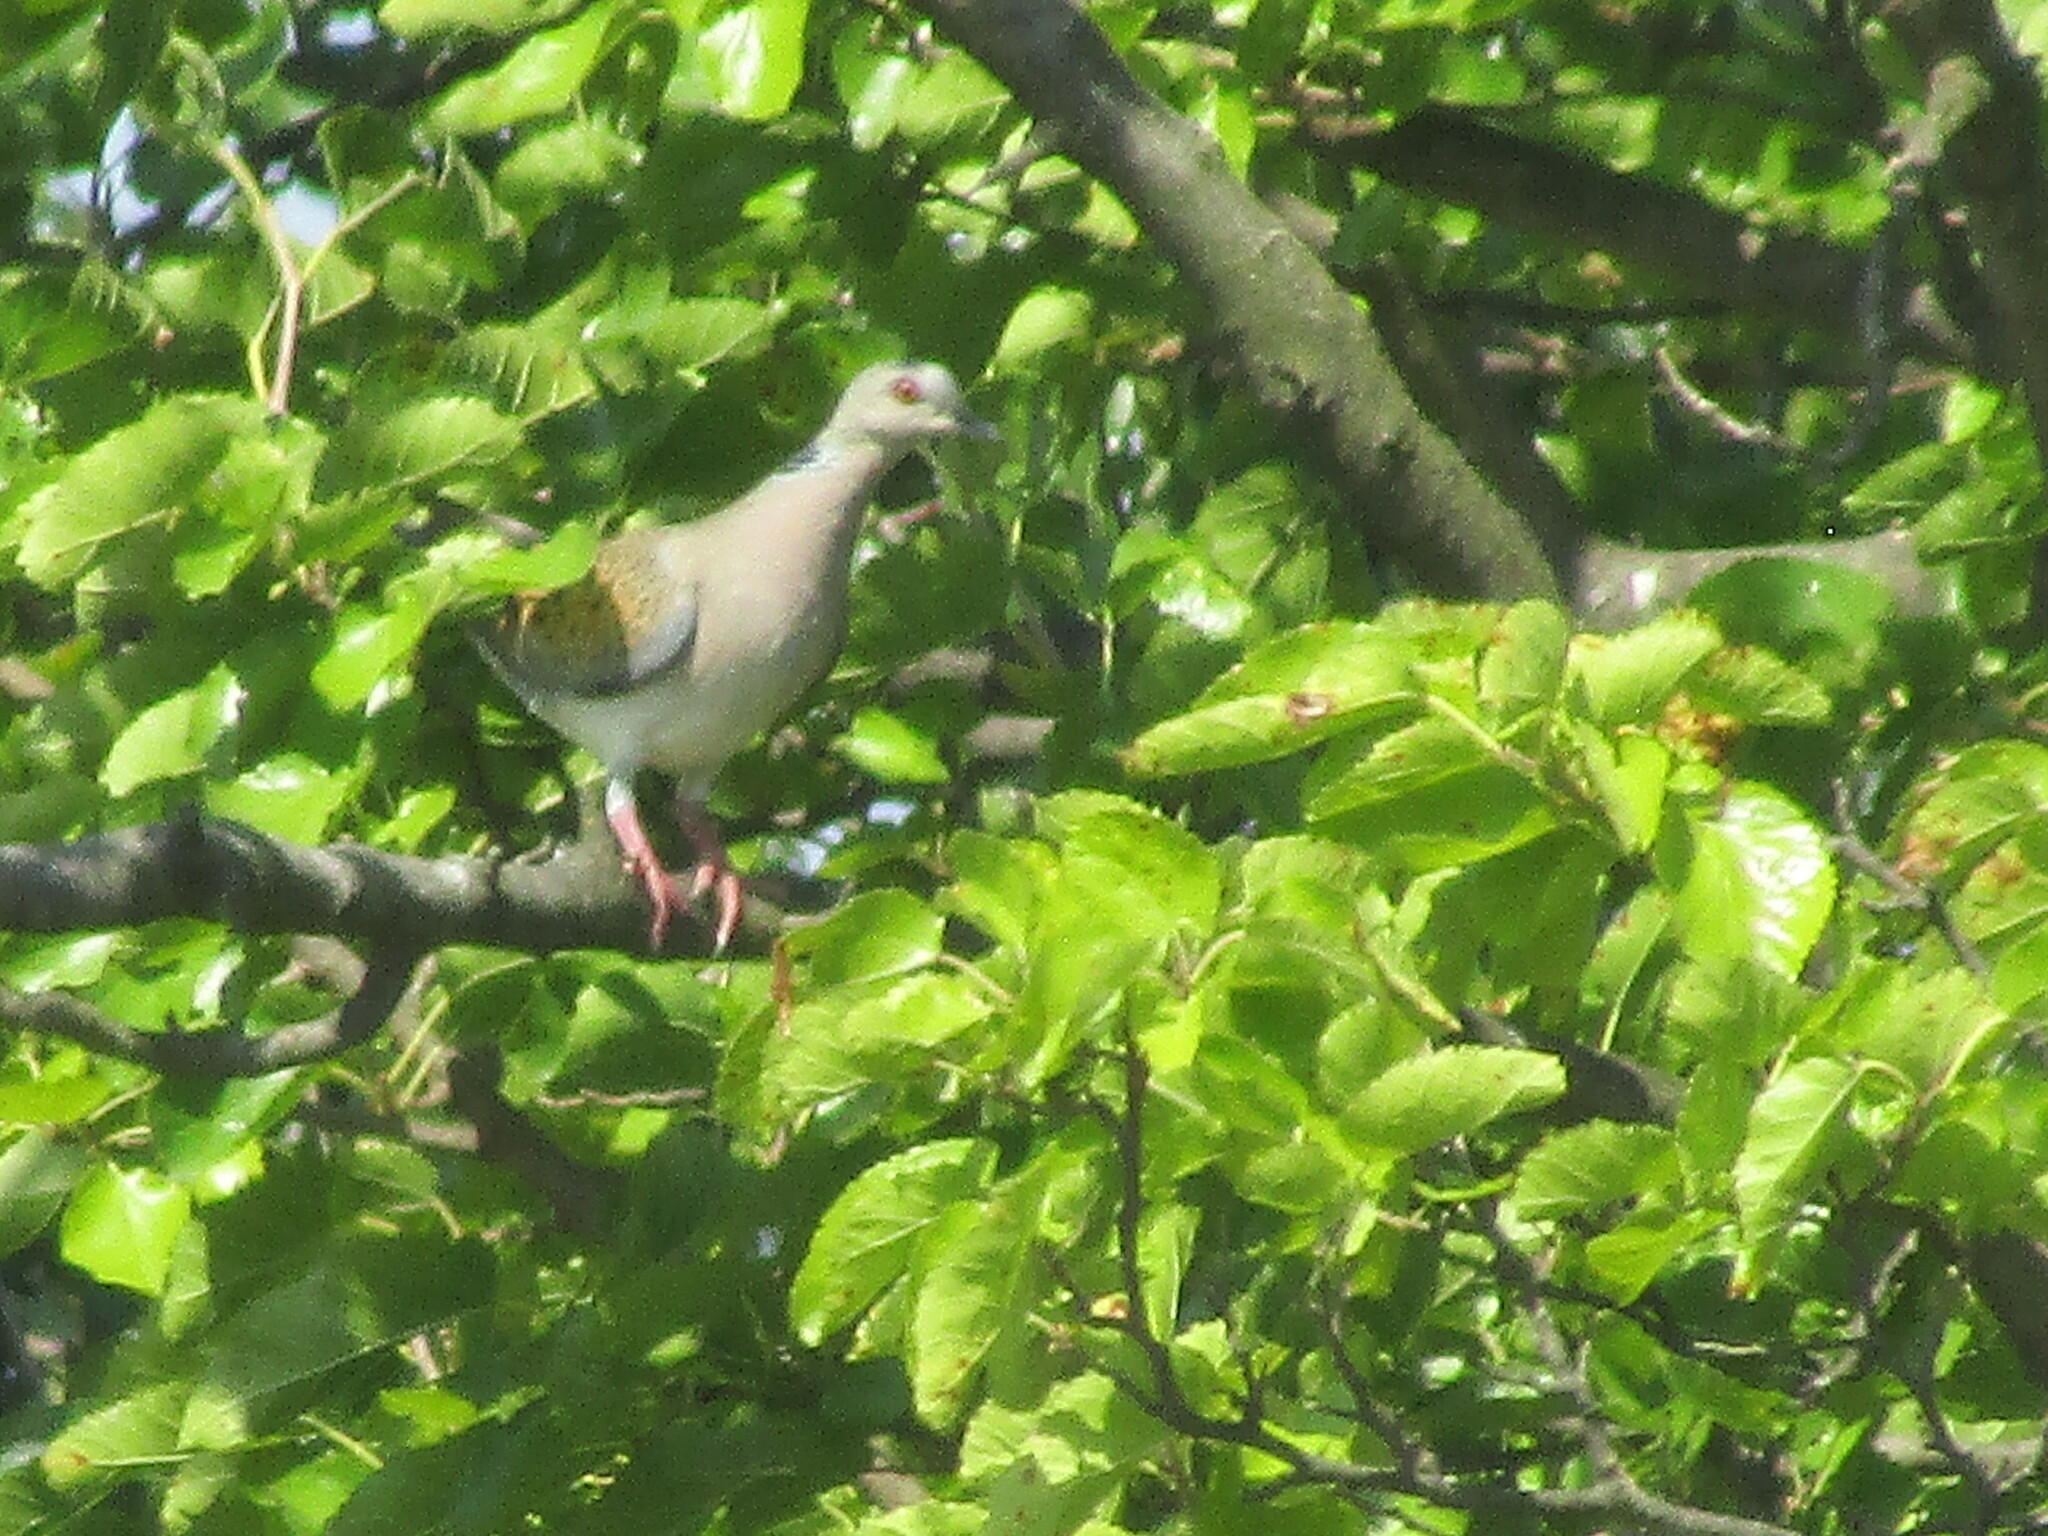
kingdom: Animalia
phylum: Chordata
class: Aves
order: Columbiformes
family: Columbidae
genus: Streptopelia
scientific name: Streptopelia turtur
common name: European turtle dove
